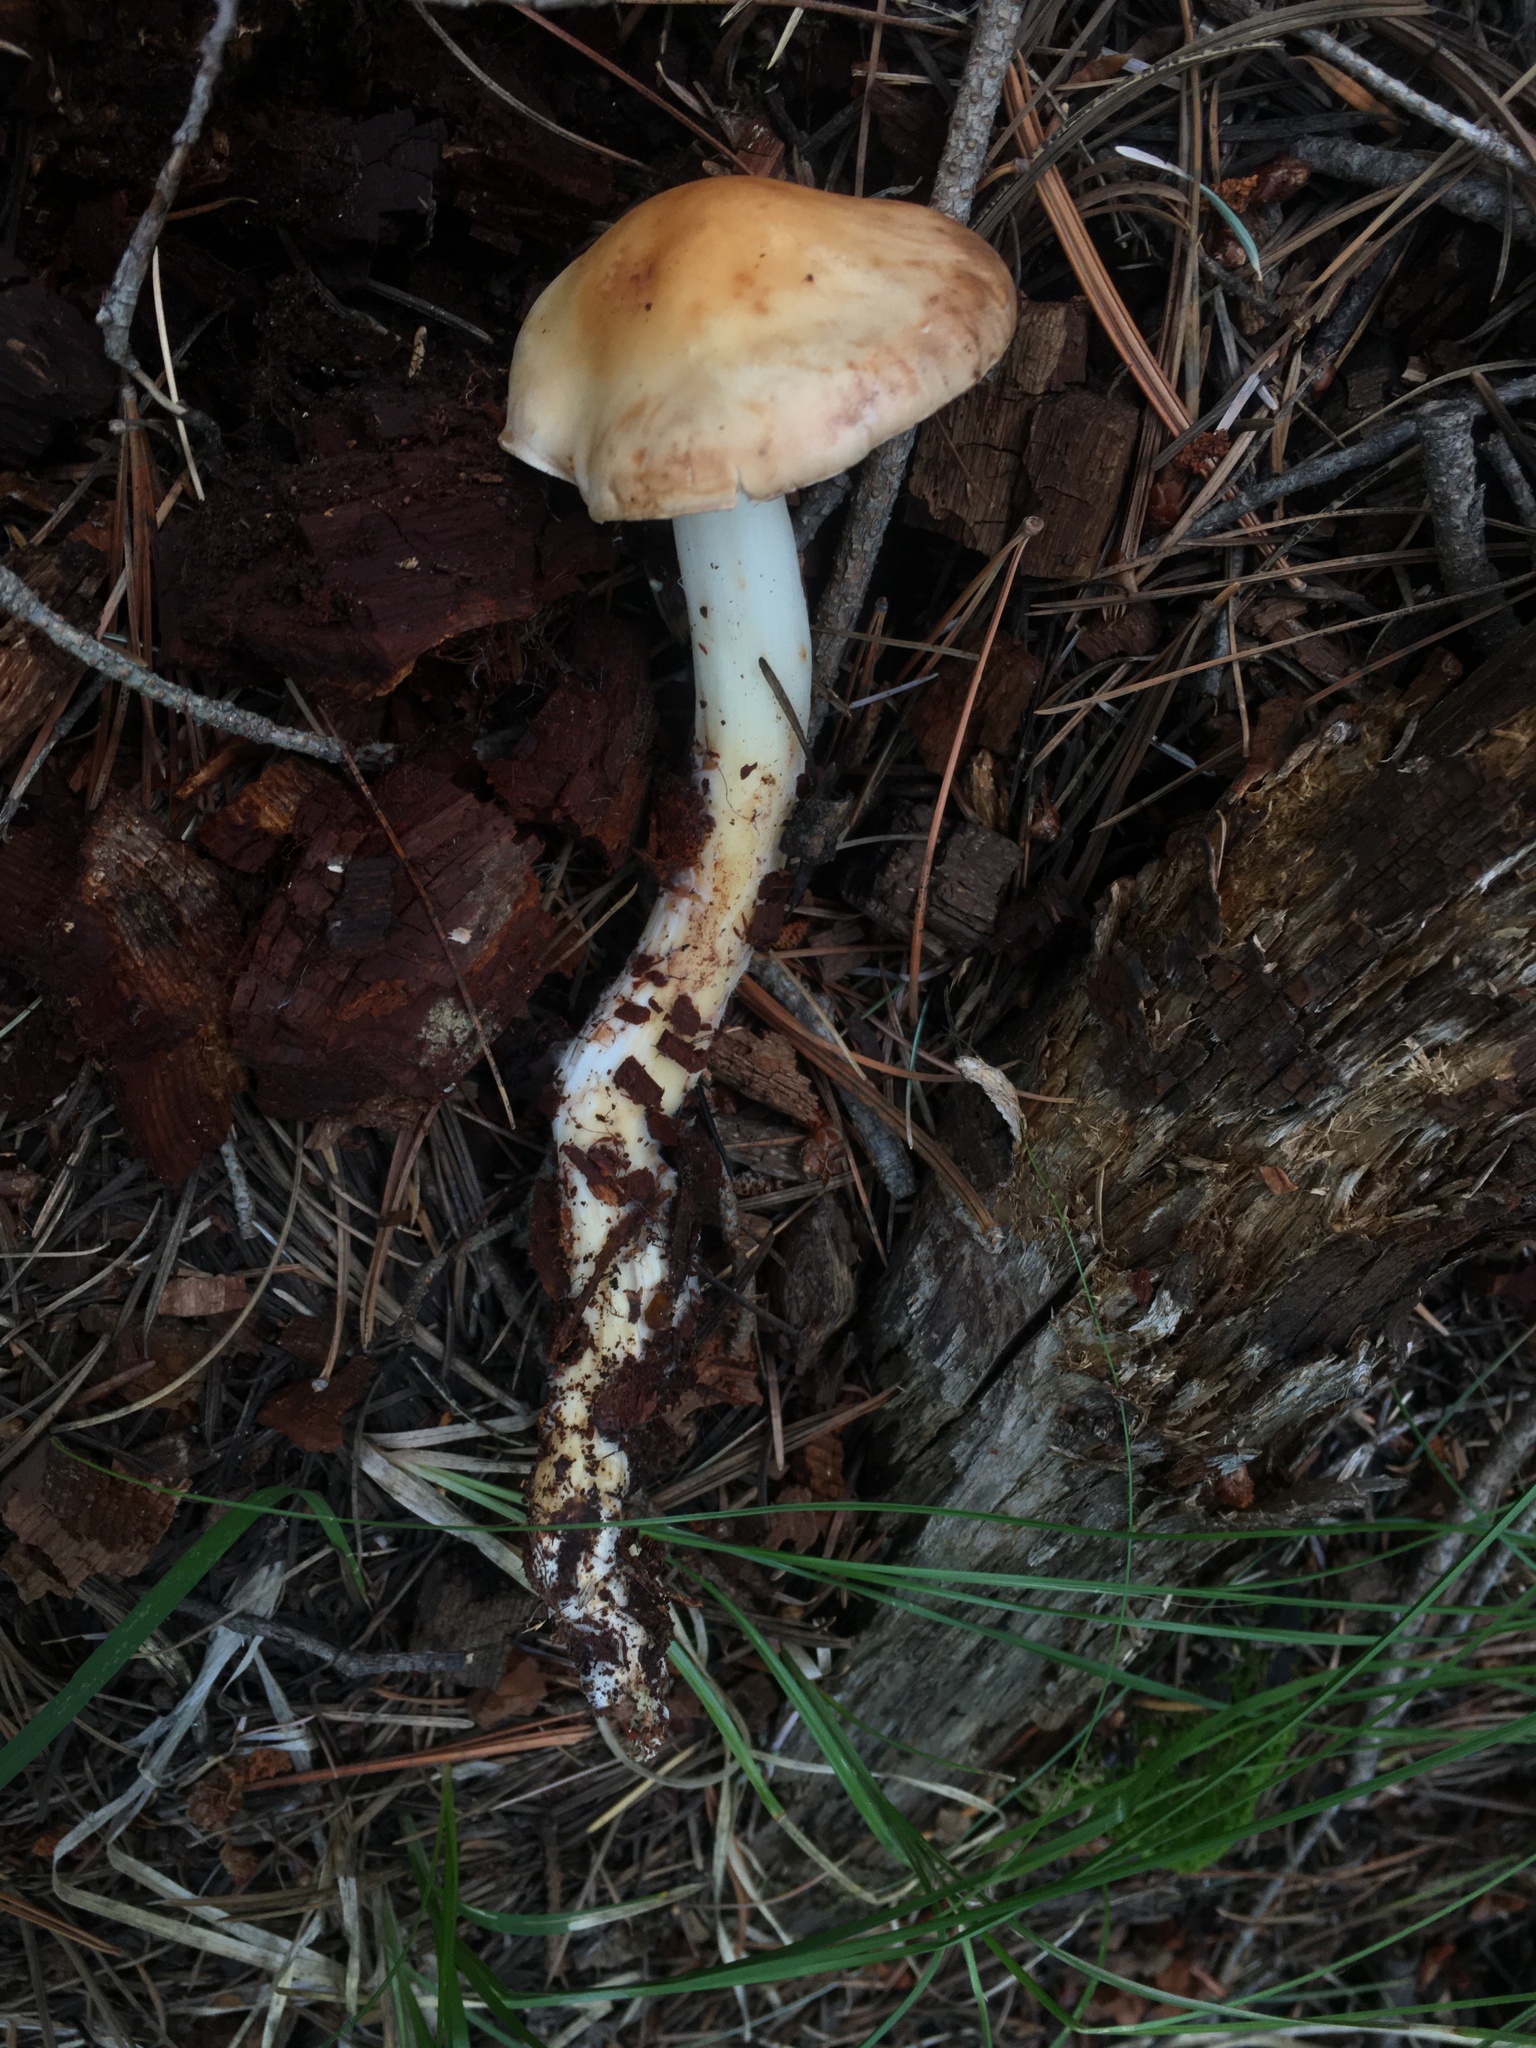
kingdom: Fungi
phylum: Basidiomycota
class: Agaricomycetes
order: Agaricales
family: Omphalotaceae
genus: Rhodocollybia
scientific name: Rhodocollybia maculata
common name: Spotted tough-shank
